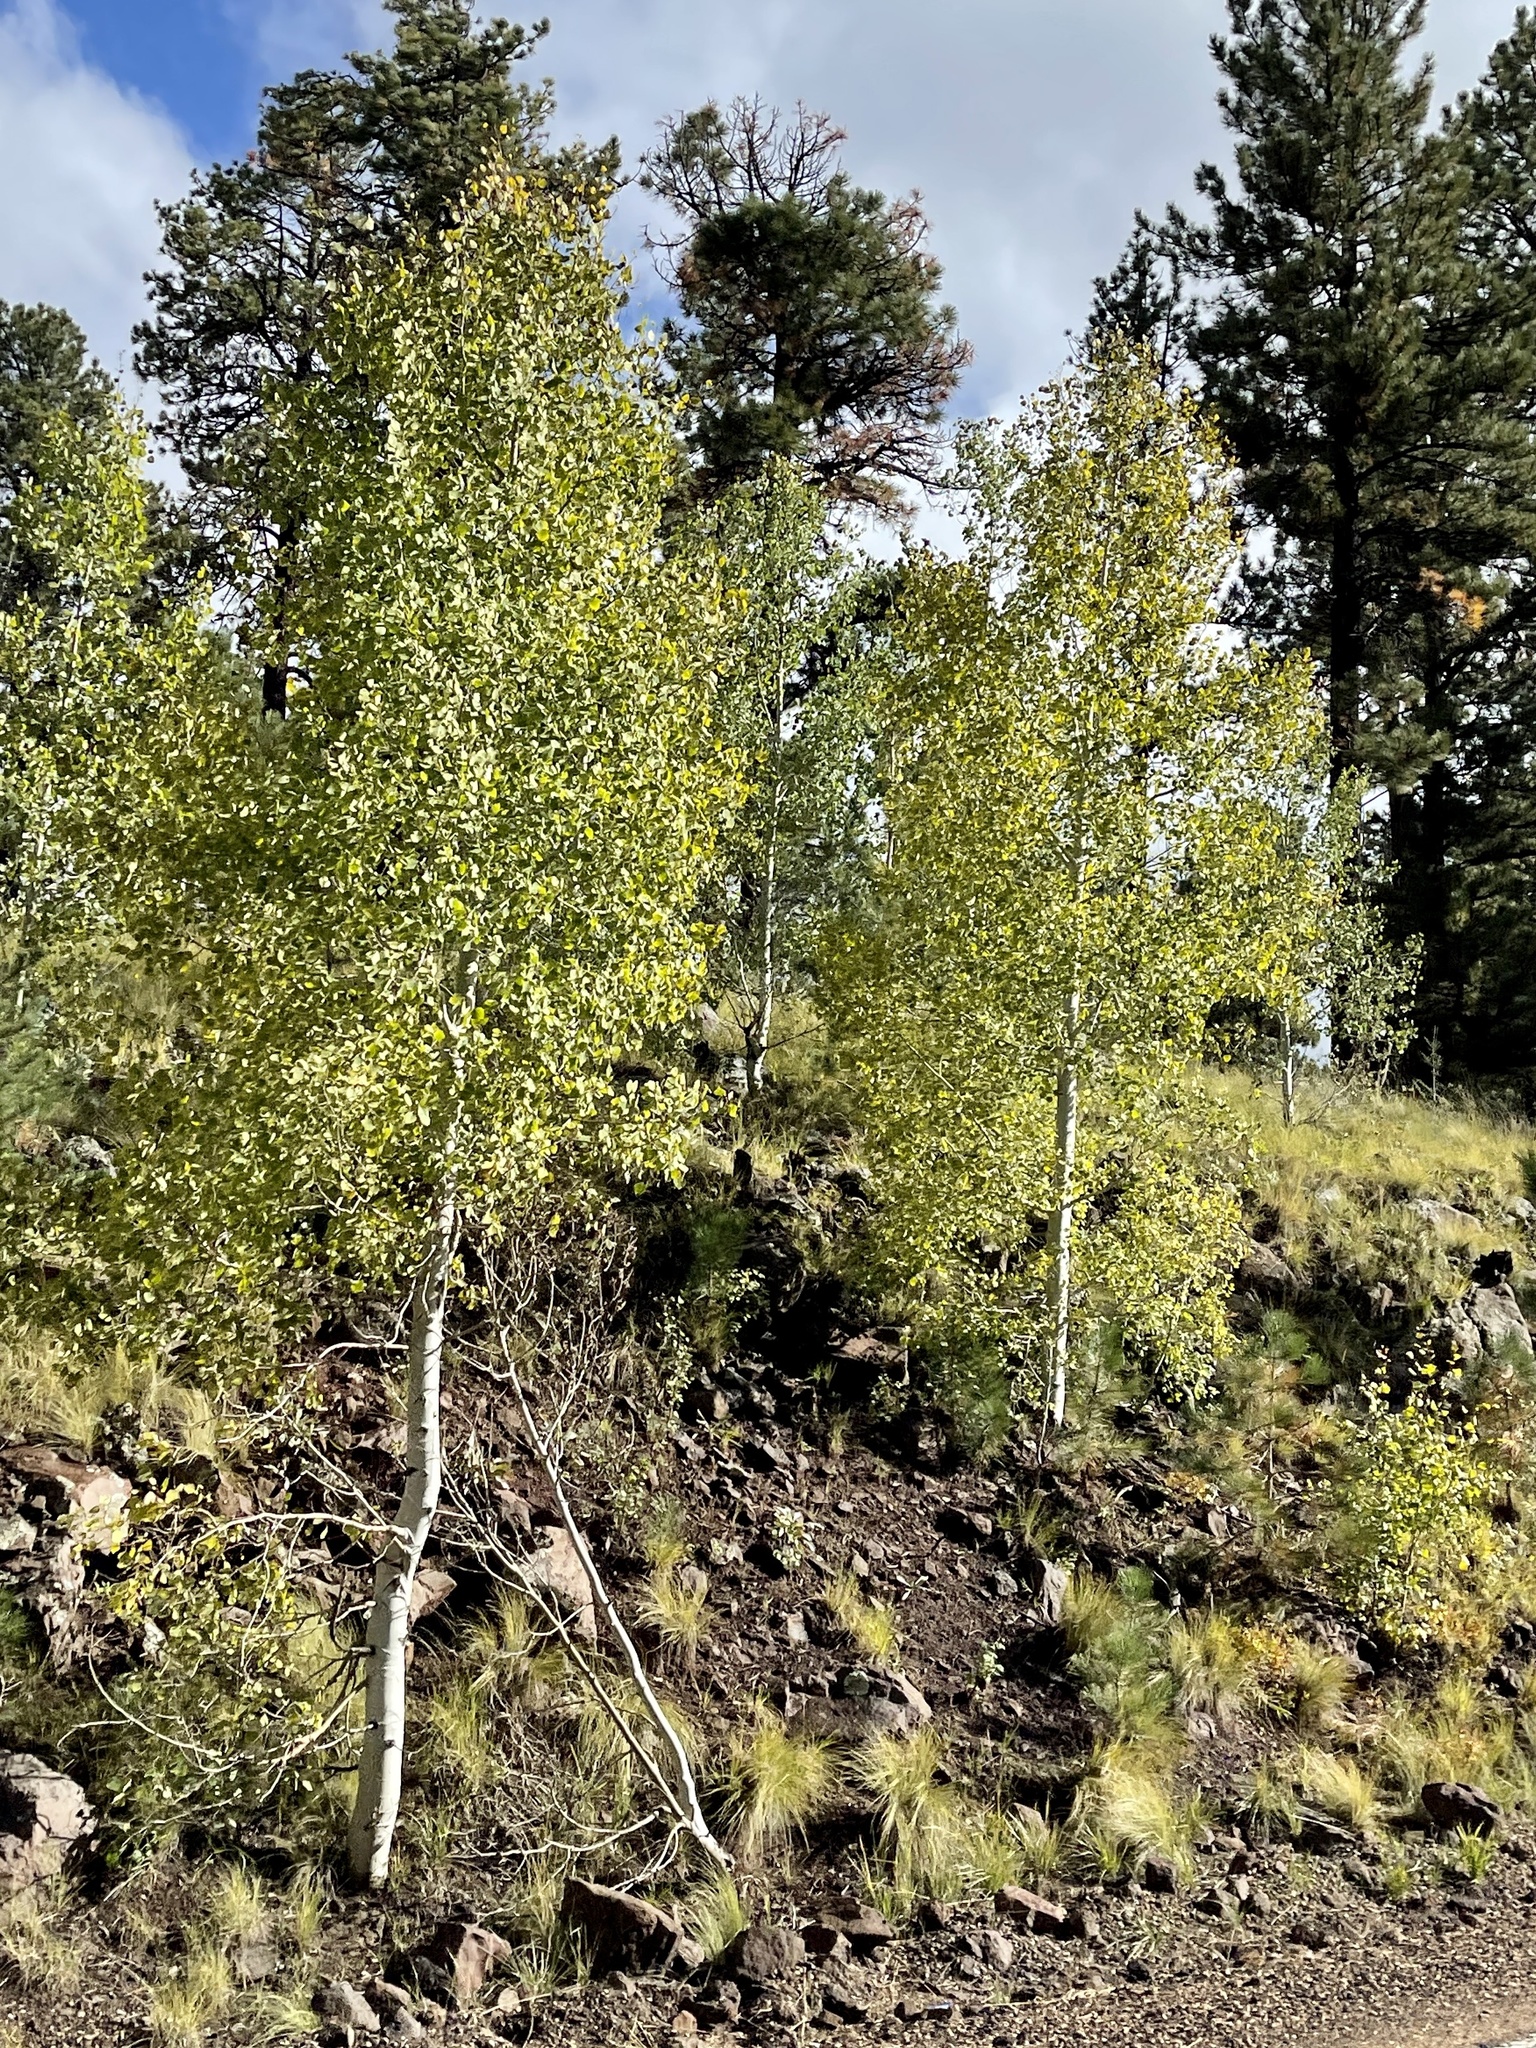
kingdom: Plantae
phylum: Tracheophyta
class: Magnoliopsida
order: Malpighiales
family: Salicaceae
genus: Populus
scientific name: Populus tremuloides
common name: Quaking aspen
